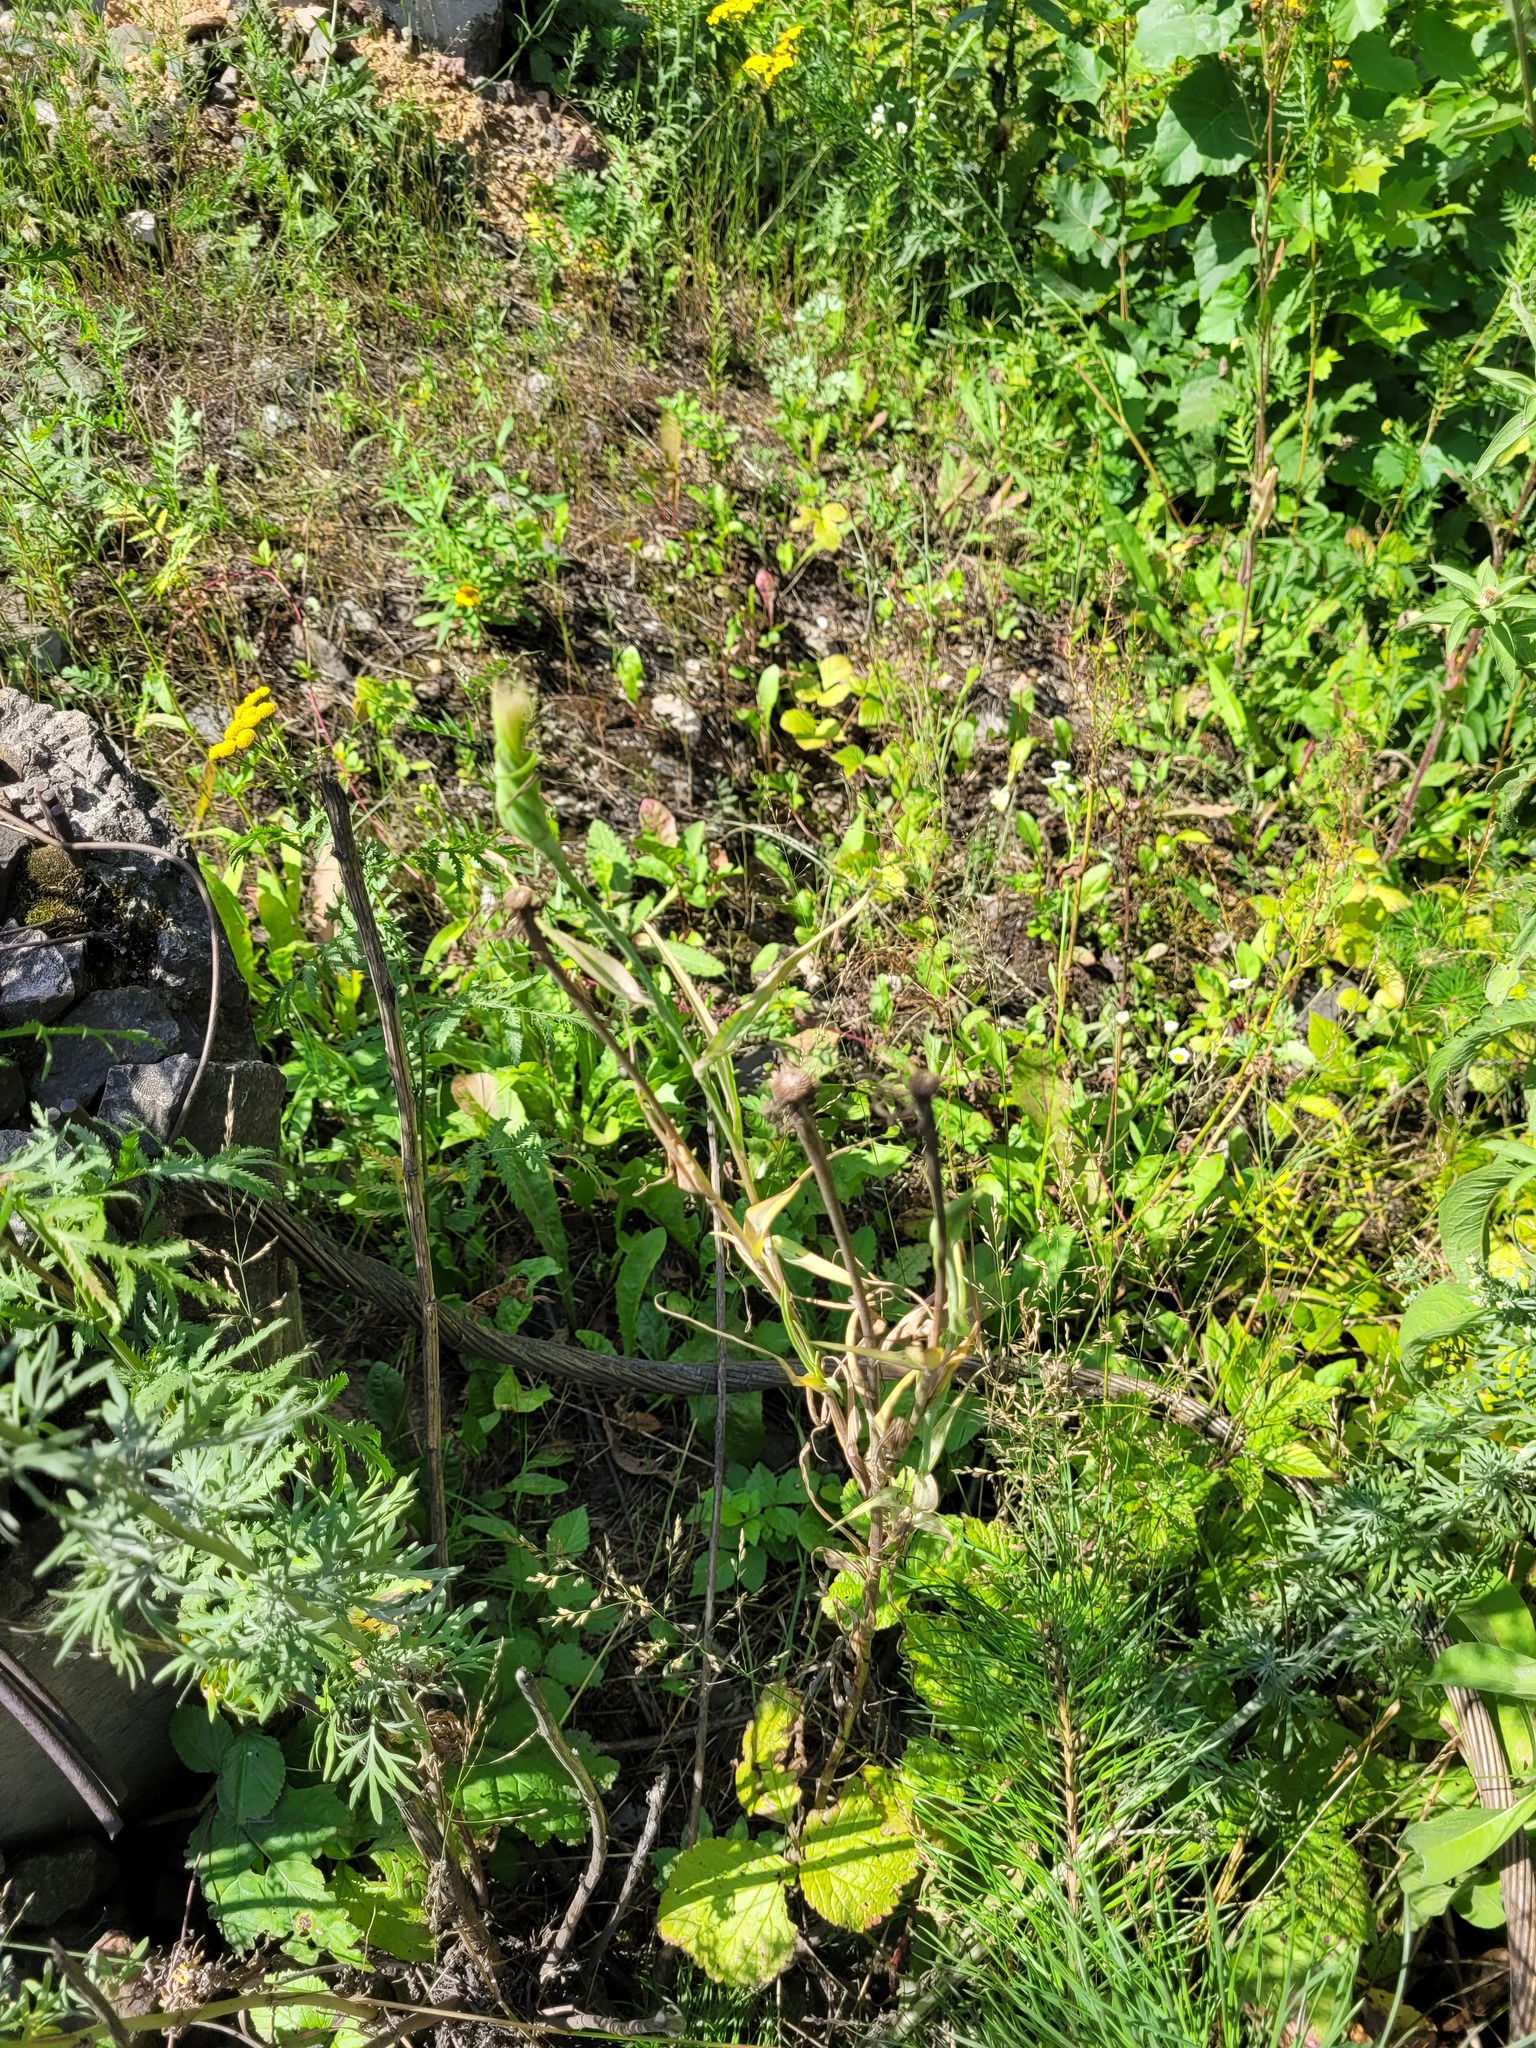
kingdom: Plantae
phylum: Tracheophyta
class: Magnoliopsida
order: Asterales
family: Asteraceae
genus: Tragopogon
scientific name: Tragopogon dubius
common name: Yellow salsify
